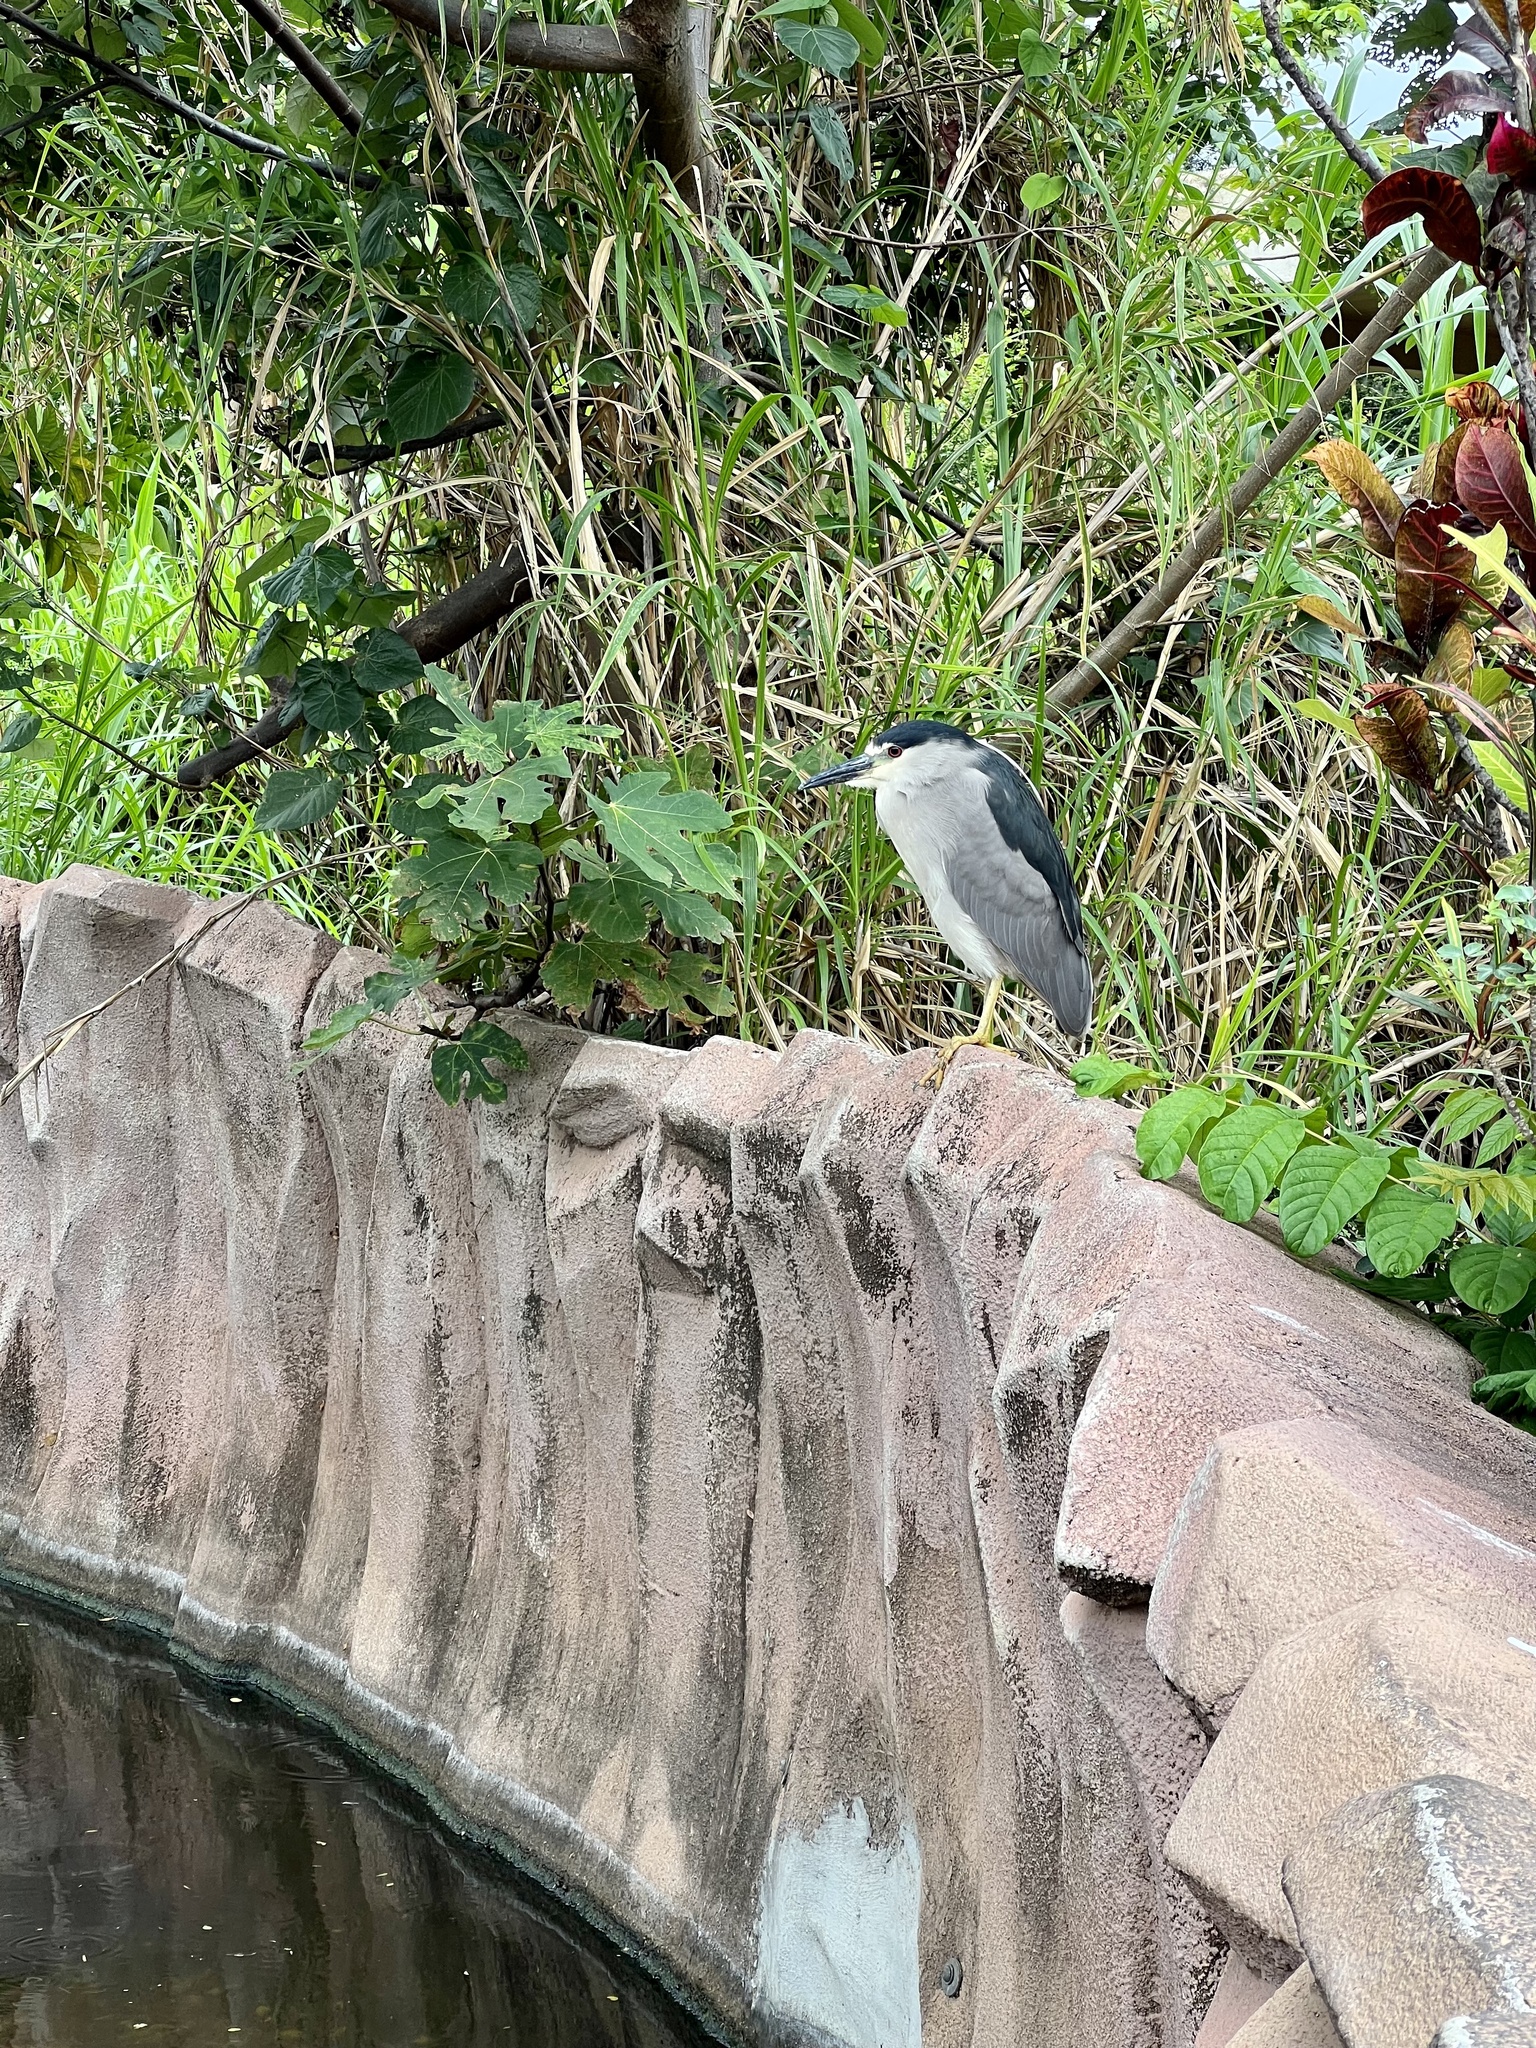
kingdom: Animalia
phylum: Chordata
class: Aves
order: Pelecaniformes
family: Ardeidae
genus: Nycticorax
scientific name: Nycticorax nycticorax
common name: Black-crowned night heron
